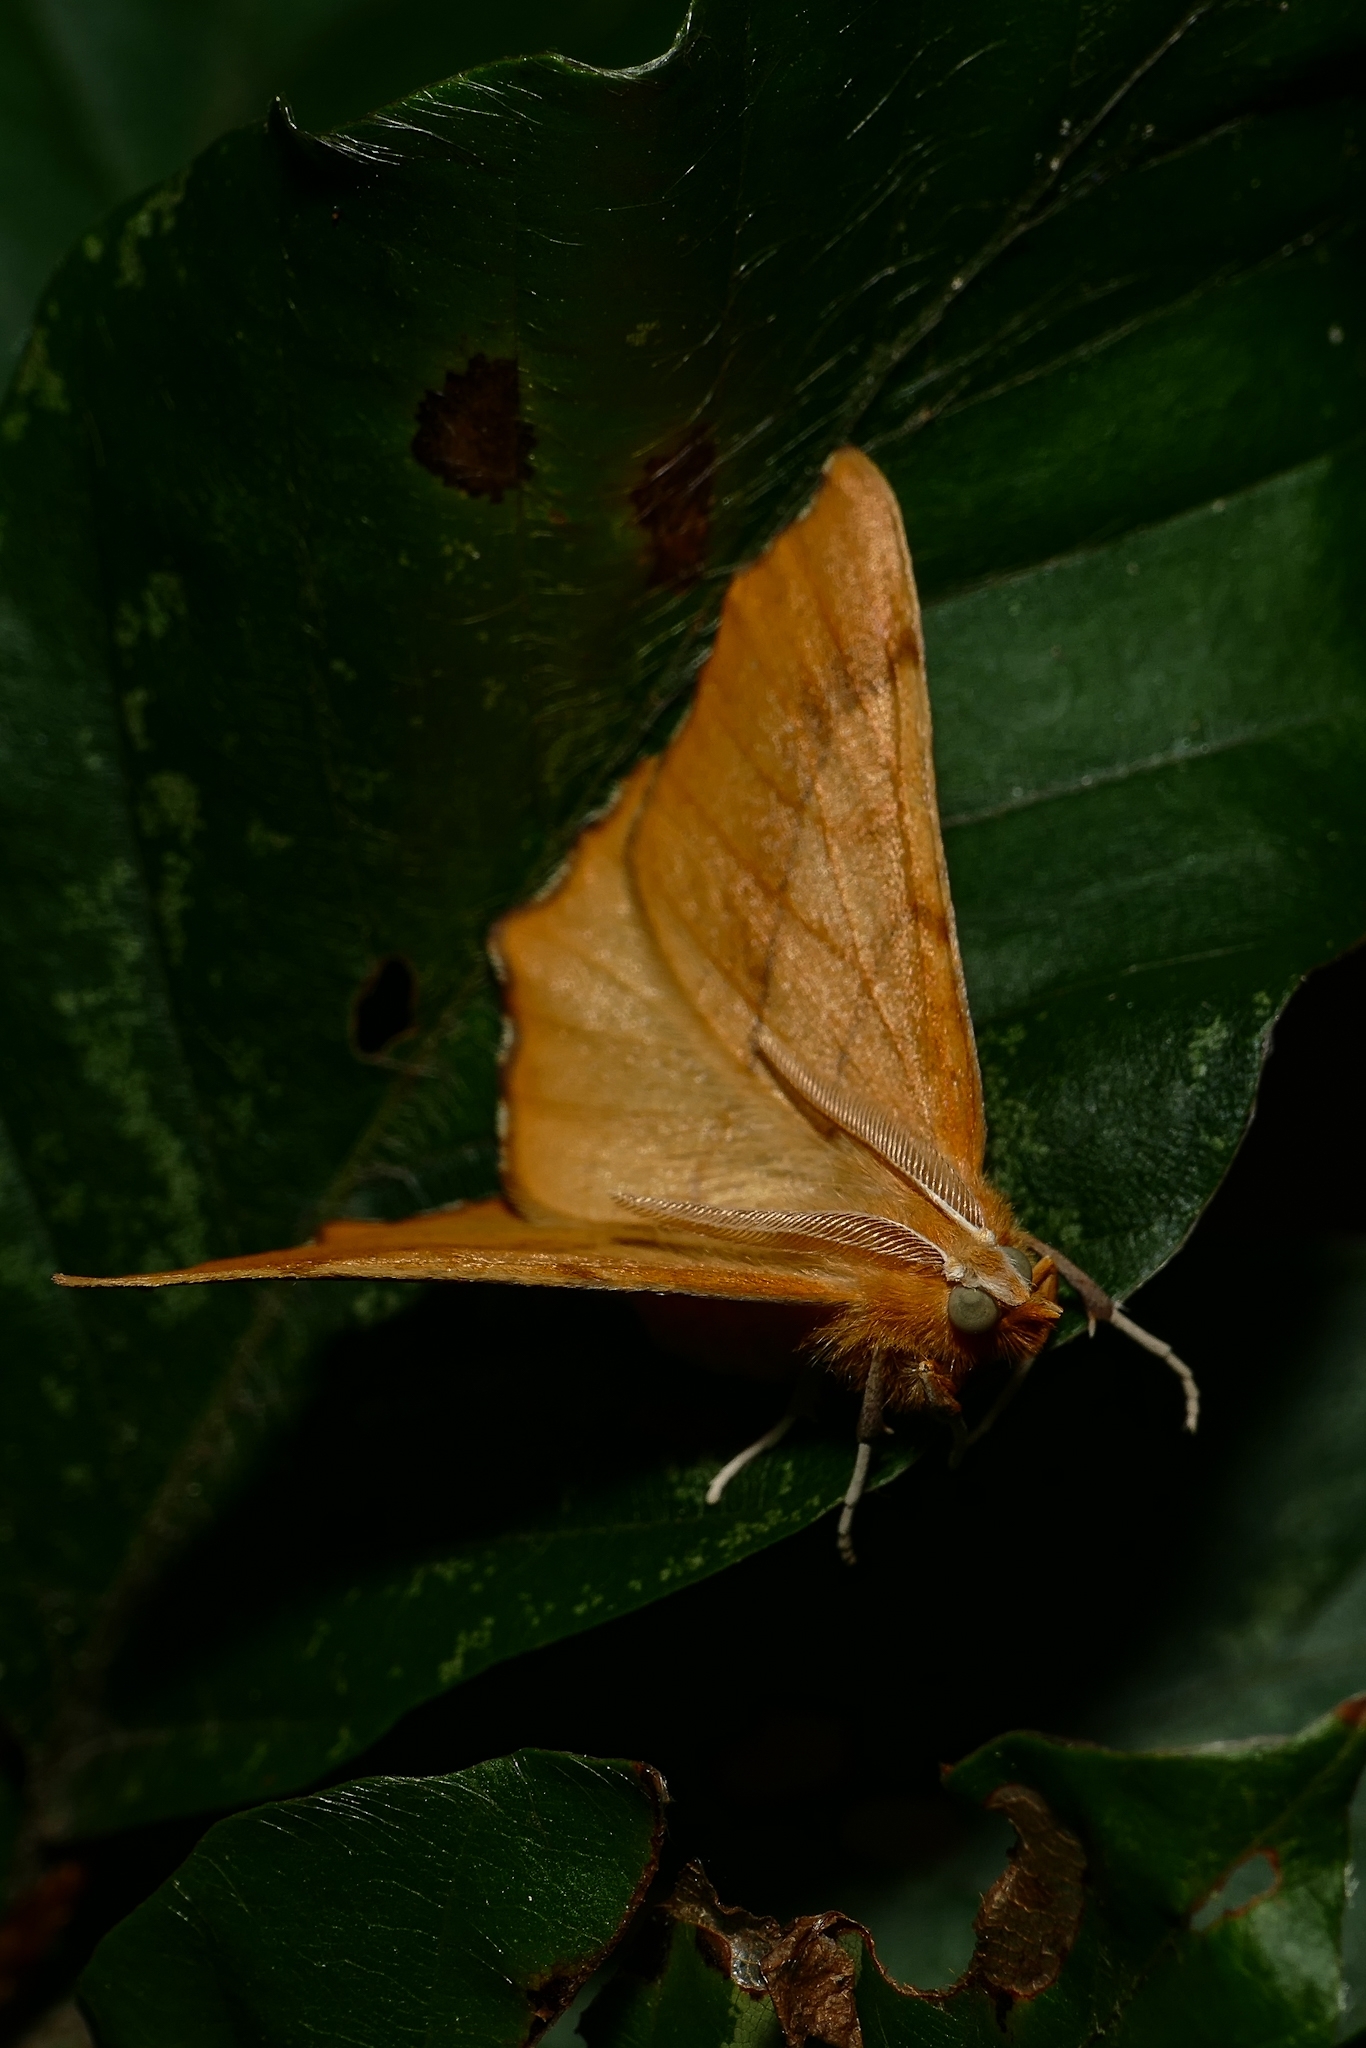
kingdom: Animalia
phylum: Arthropoda
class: Insecta
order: Lepidoptera
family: Geometridae
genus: Ennomos
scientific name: Ennomos quercinaria
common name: August thorn
